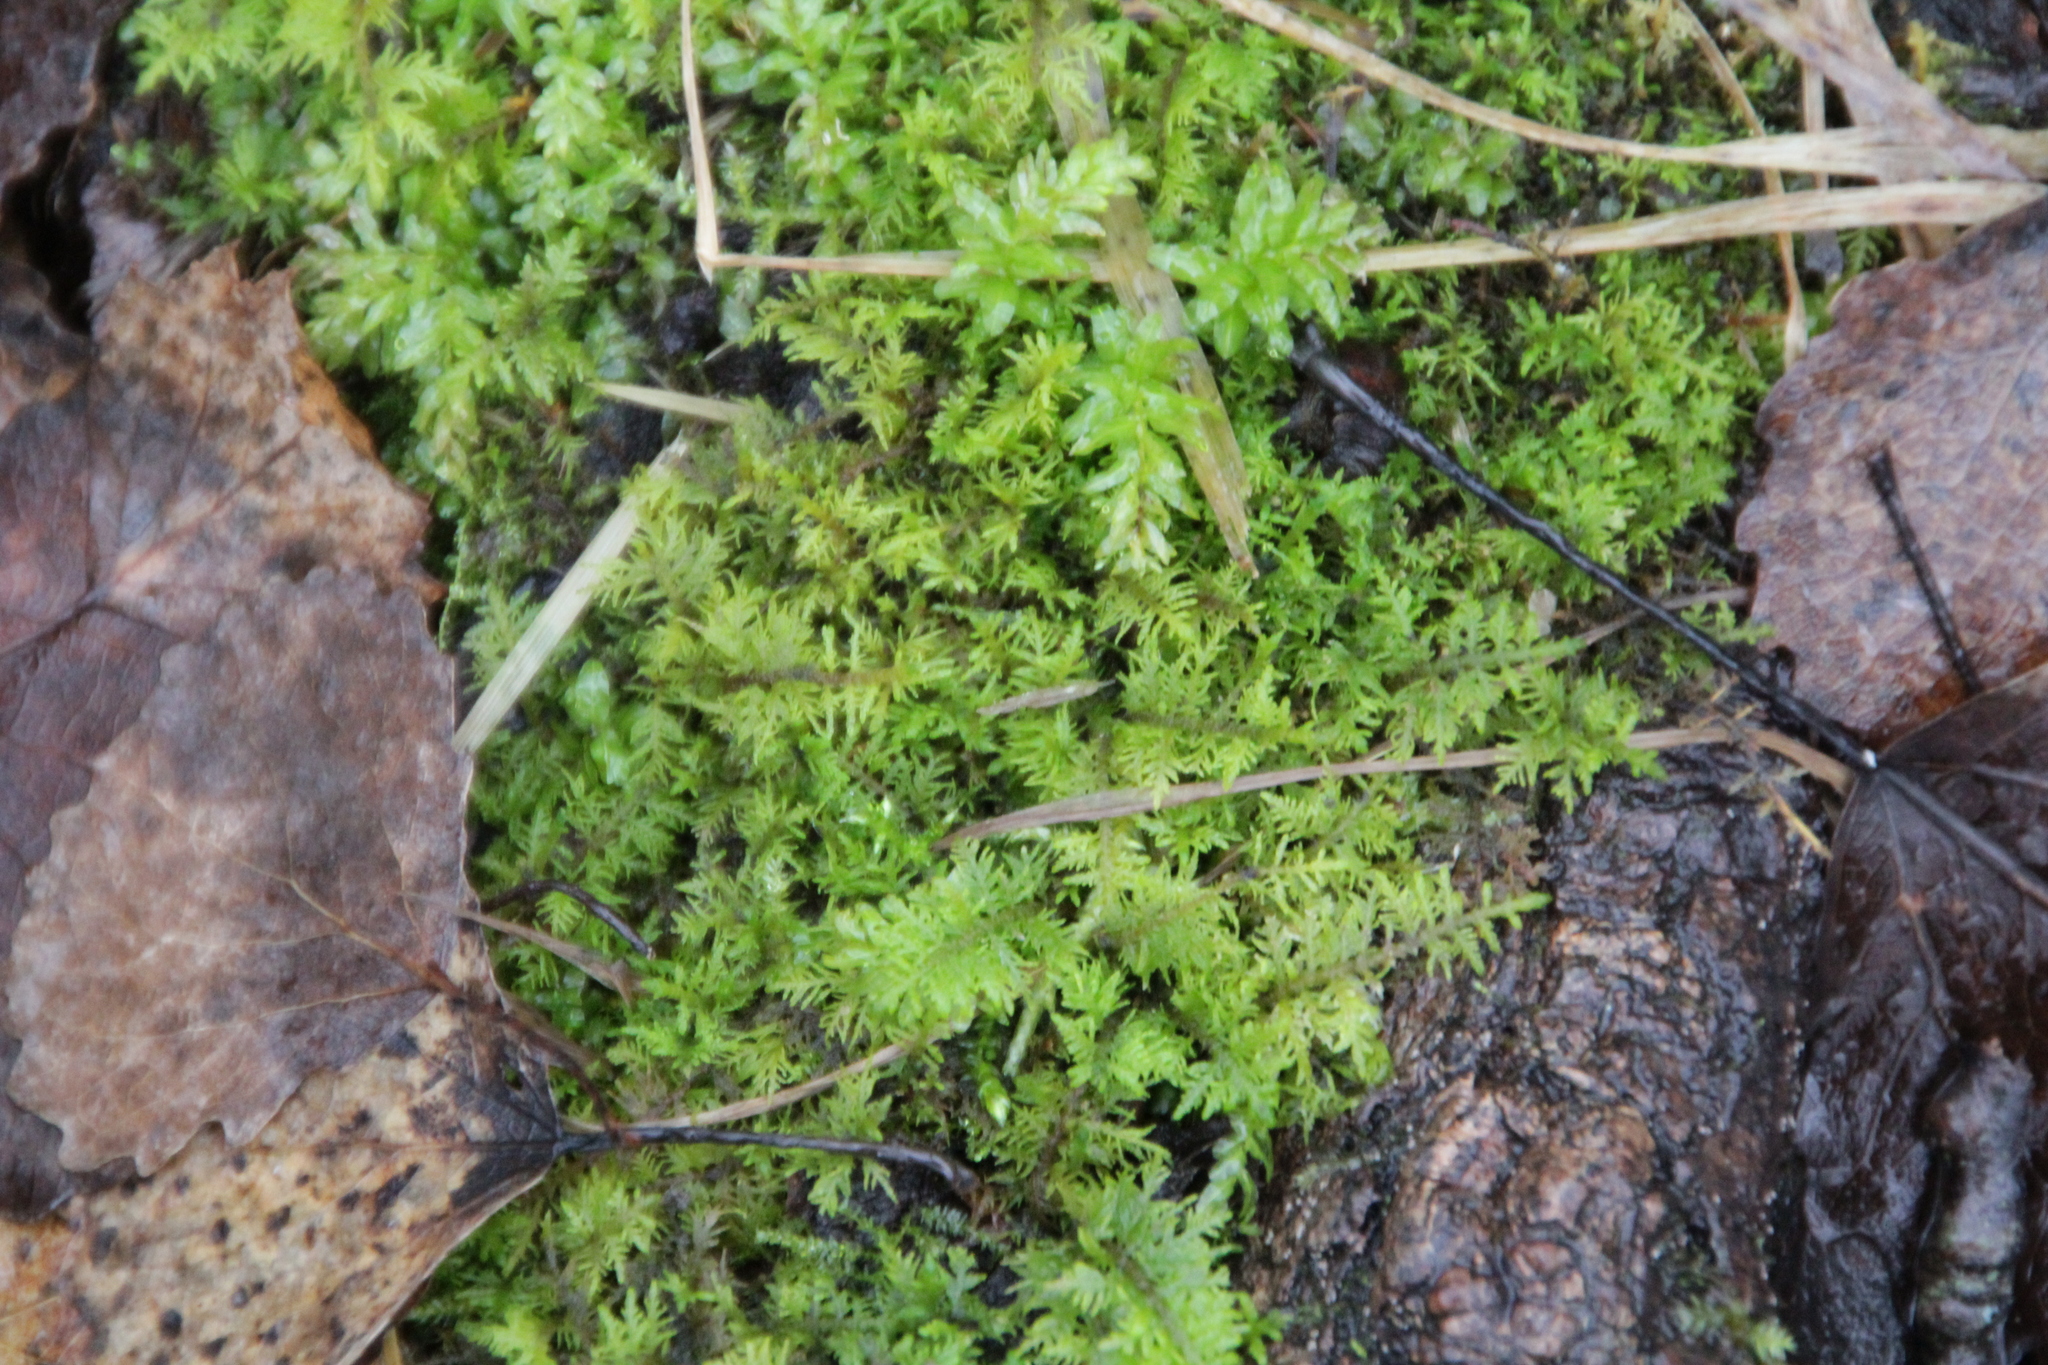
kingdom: Plantae
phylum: Bryophyta
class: Bryopsida
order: Hypnales
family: Thuidiaceae
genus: Thuidium
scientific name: Thuidium tamariscinum
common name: Common tamarisk-moss
